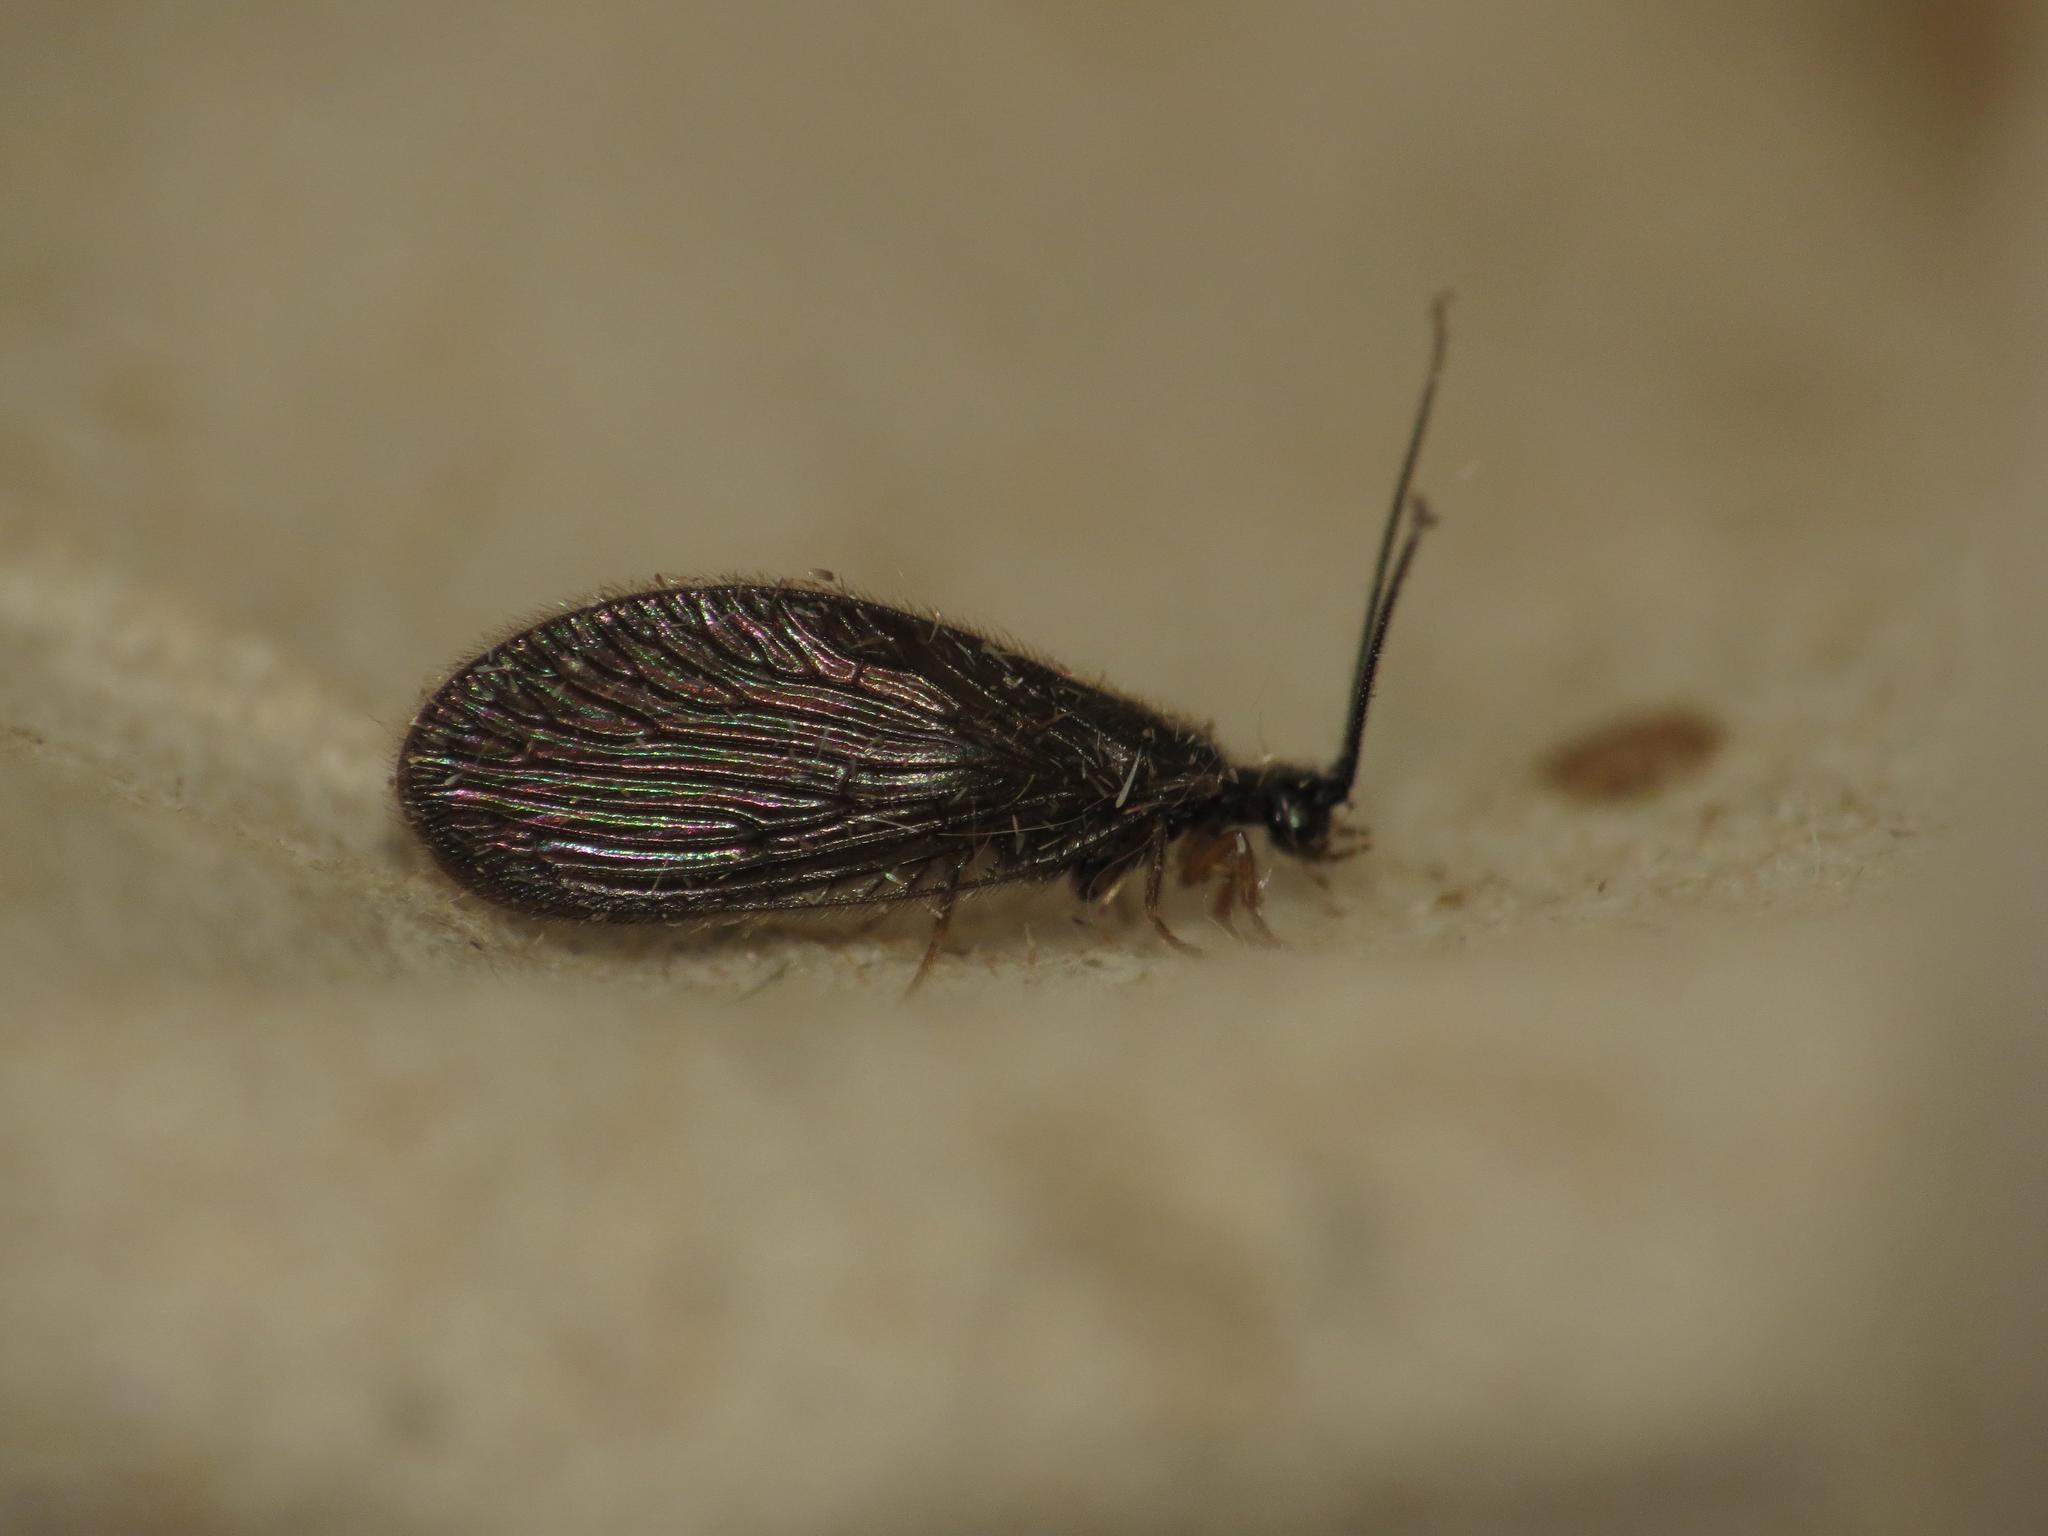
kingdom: Animalia
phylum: Arthropoda
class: Insecta
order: Neuroptera
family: Sisyridae
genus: Sisyra
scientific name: Sisyra nigra
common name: Black spongillafly
